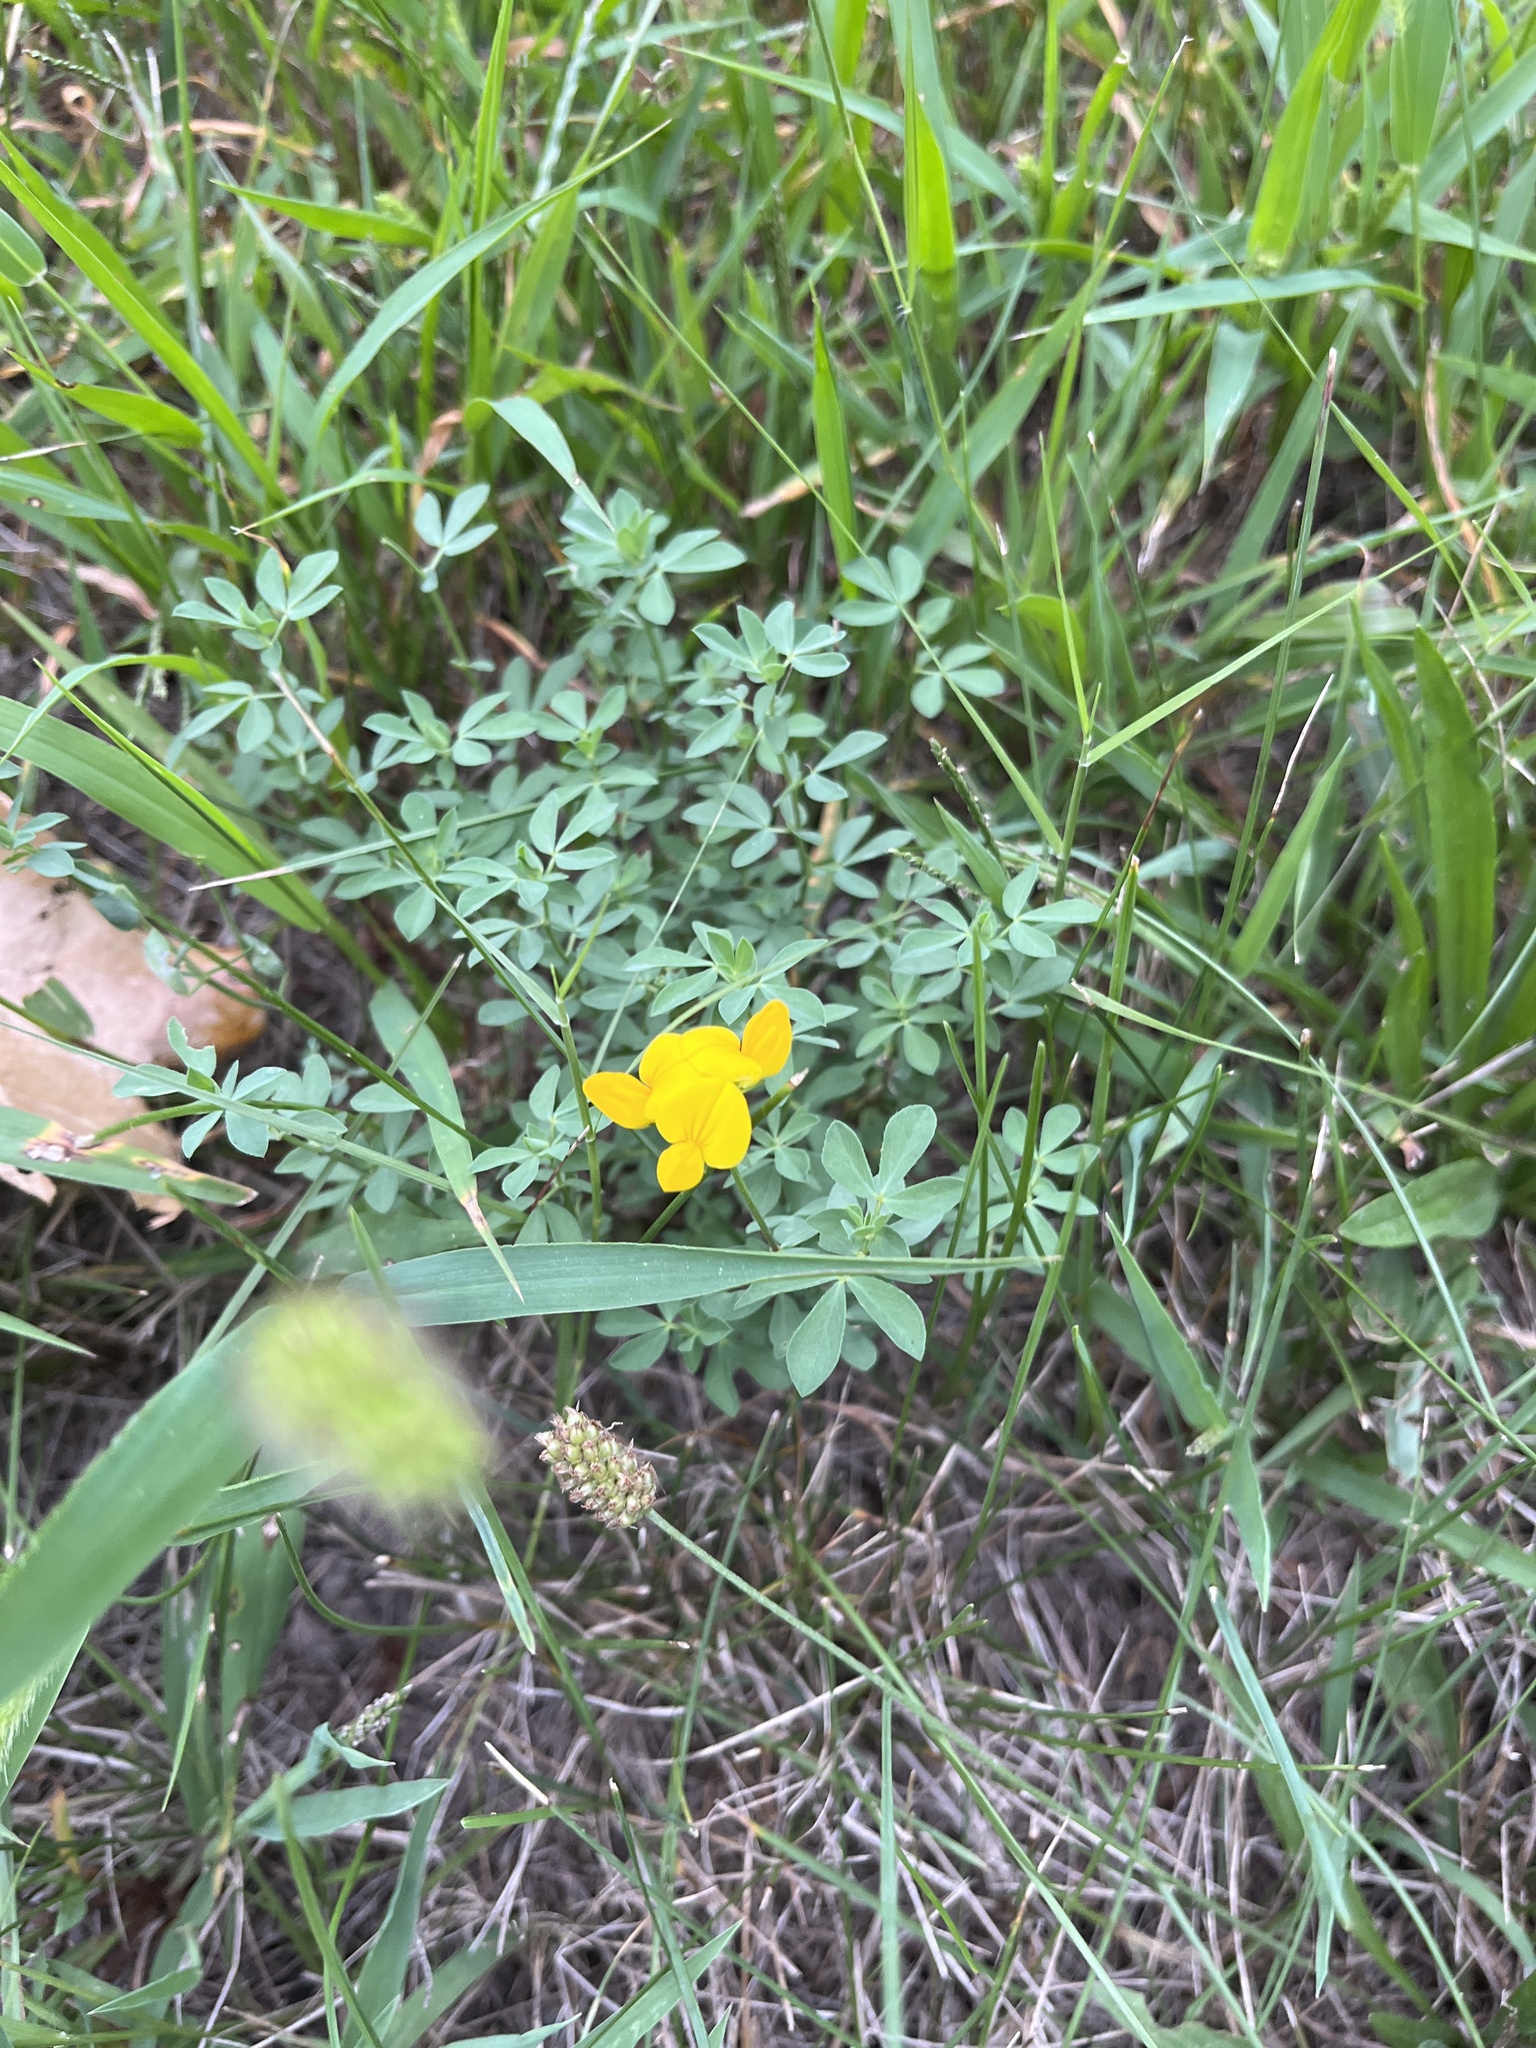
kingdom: Plantae
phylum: Tracheophyta
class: Magnoliopsida
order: Fabales
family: Fabaceae
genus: Lotus
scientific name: Lotus corniculatus
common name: Common bird's-foot-trefoil
